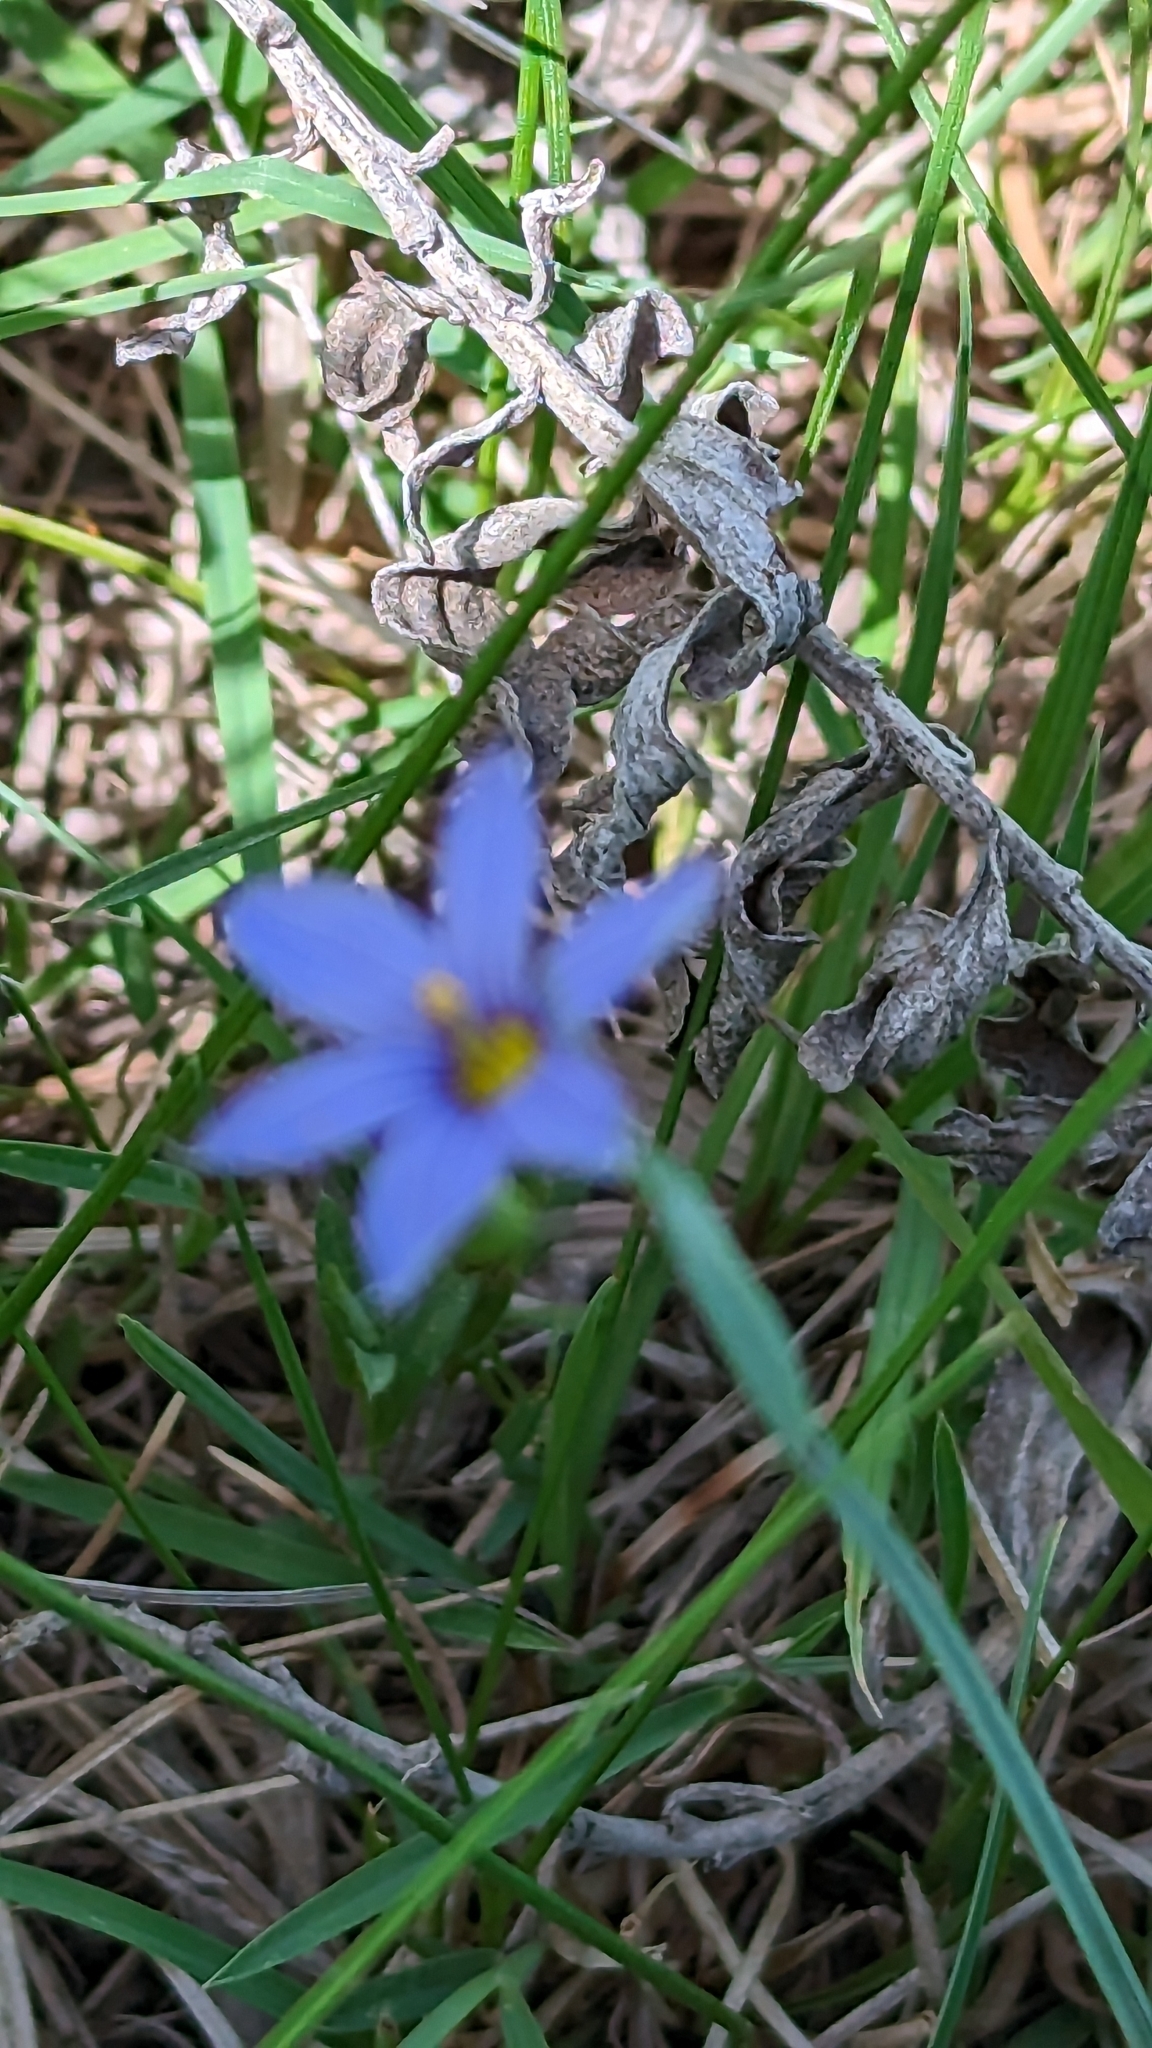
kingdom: Plantae
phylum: Tracheophyta
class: Liliopsida
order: Asparagales
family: Iridaceae
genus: Sisyrinchium
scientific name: Sisyrinchium montanum
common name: American blue-eyed-grass
